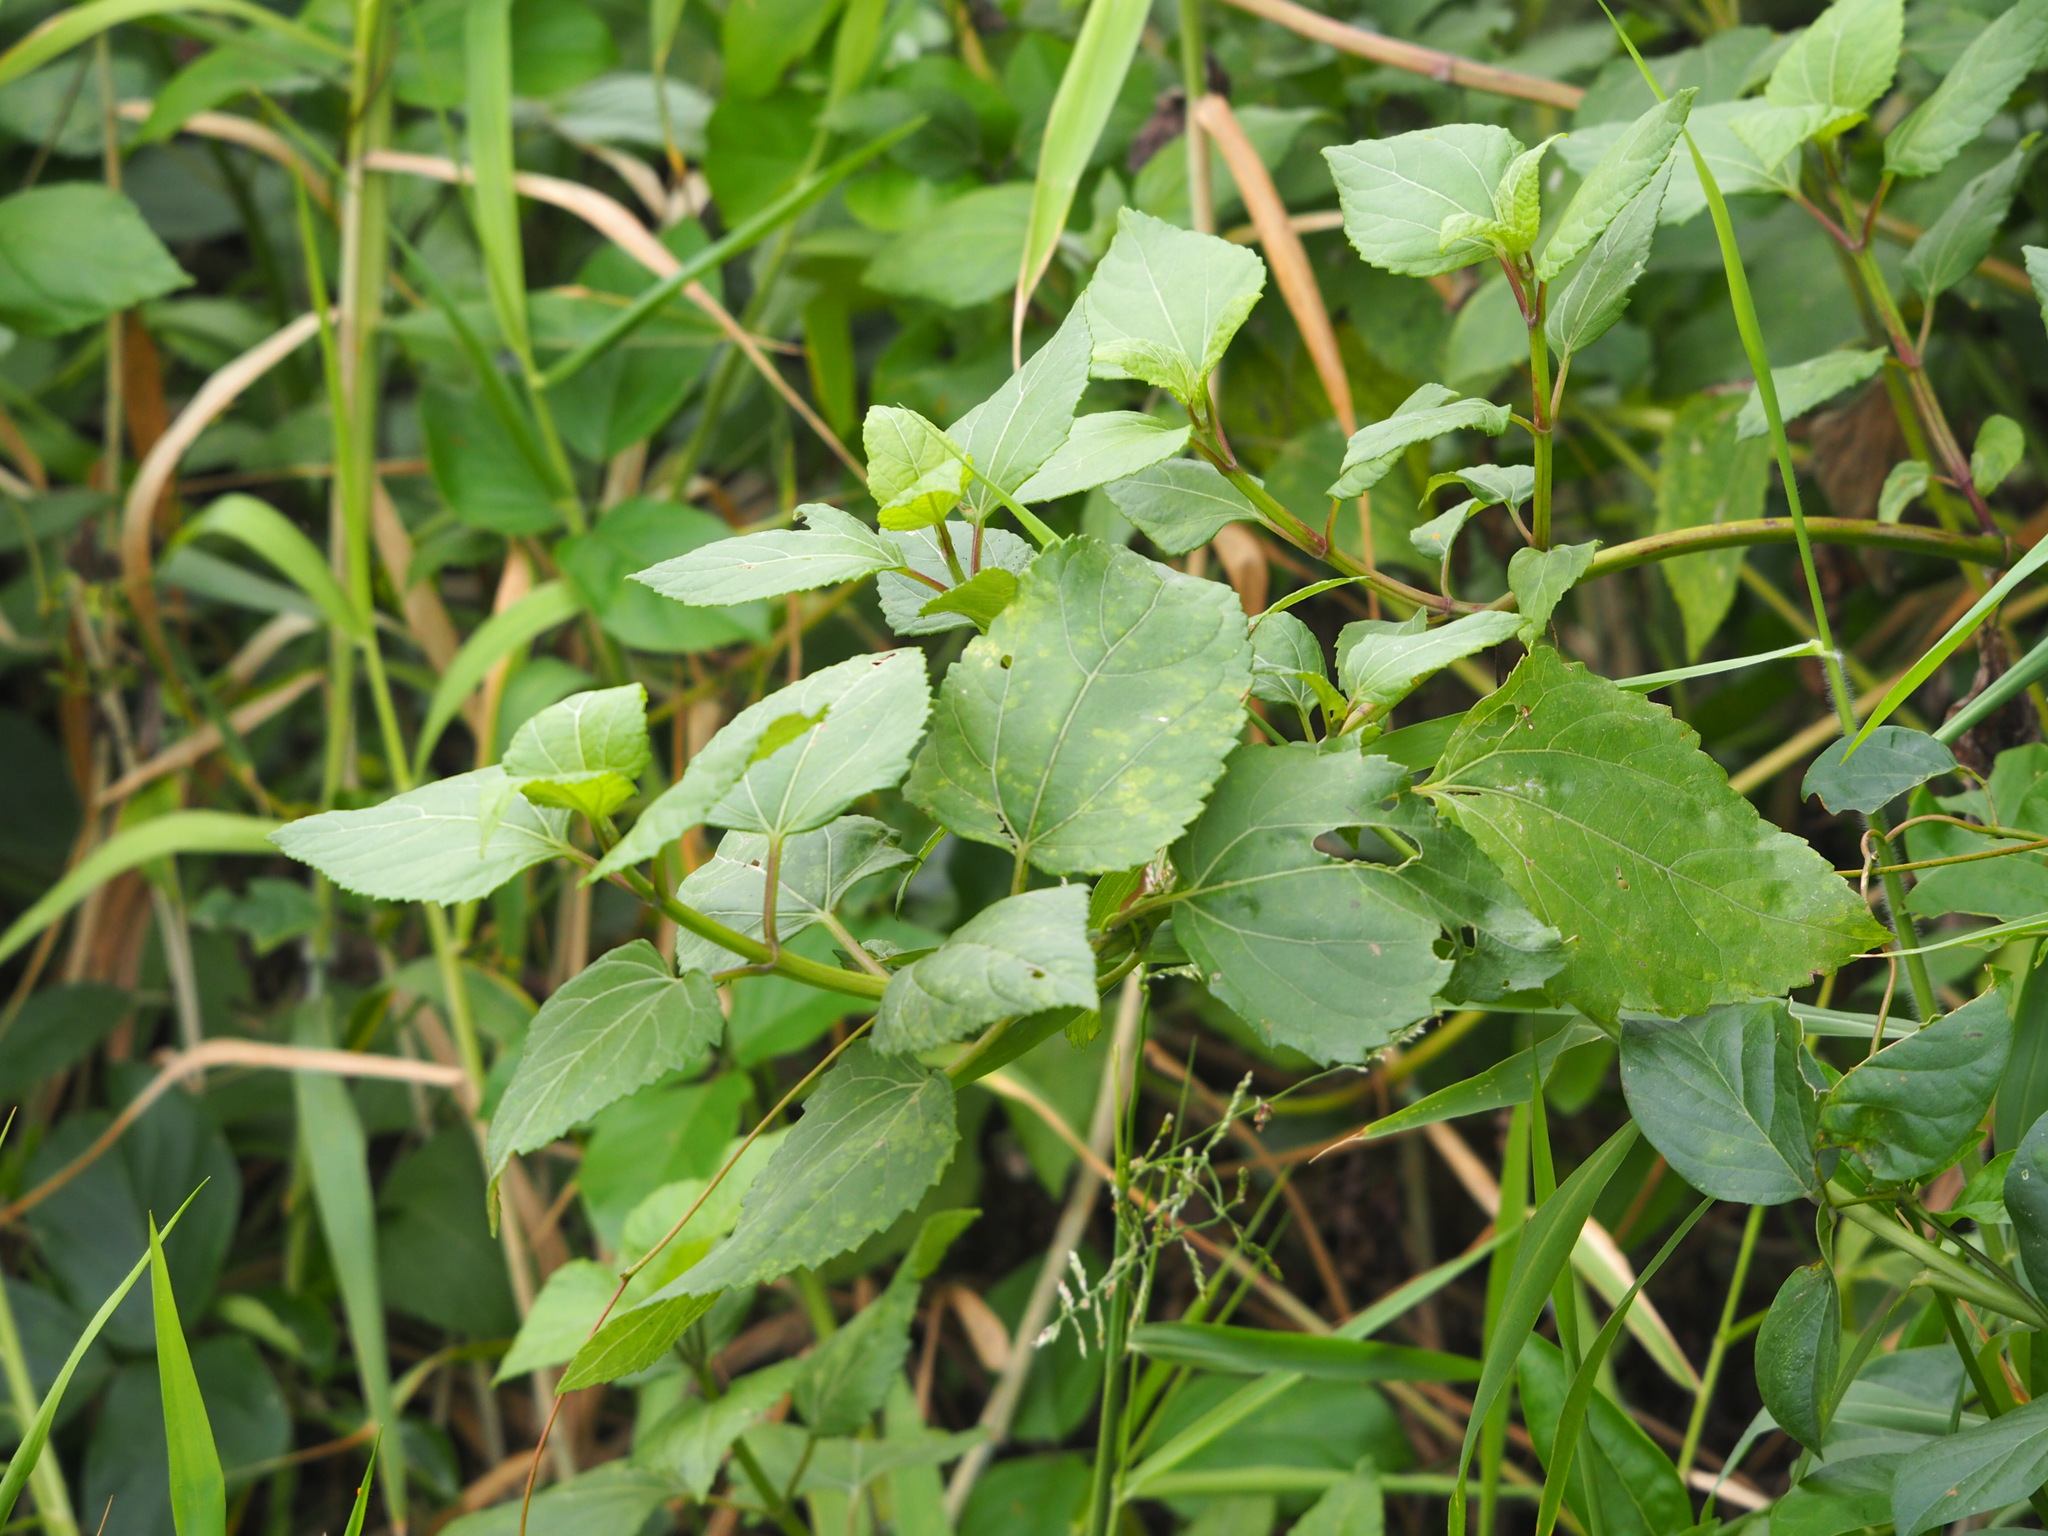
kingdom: Plantae
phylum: Tracheophyta
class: Magnoliopsida
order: Asterales
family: Asteraceae
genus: Wollastonia
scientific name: Wollastonia biflora
